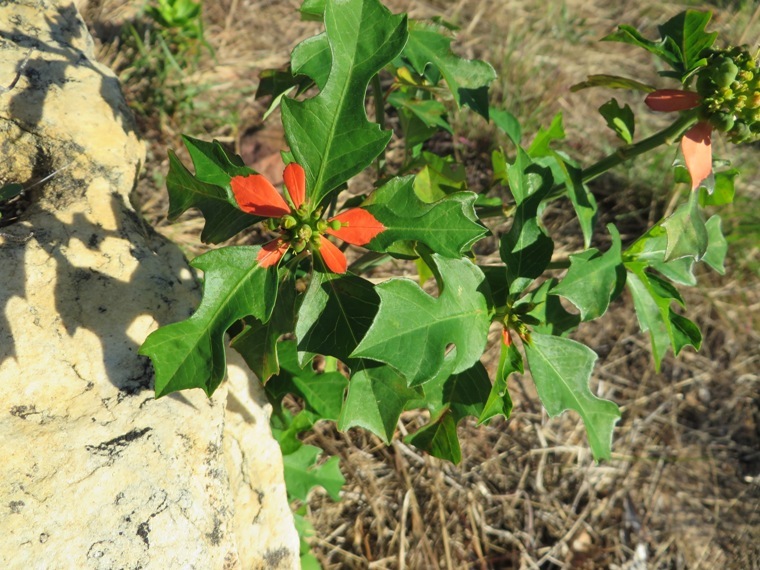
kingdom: Plantae
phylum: Tracheophyta
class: Magnoliopsida
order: Malpighiales
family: Euphorbiaceae
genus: Euphorbia
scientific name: Euphorbia heterophylla
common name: Mexican fireplant
